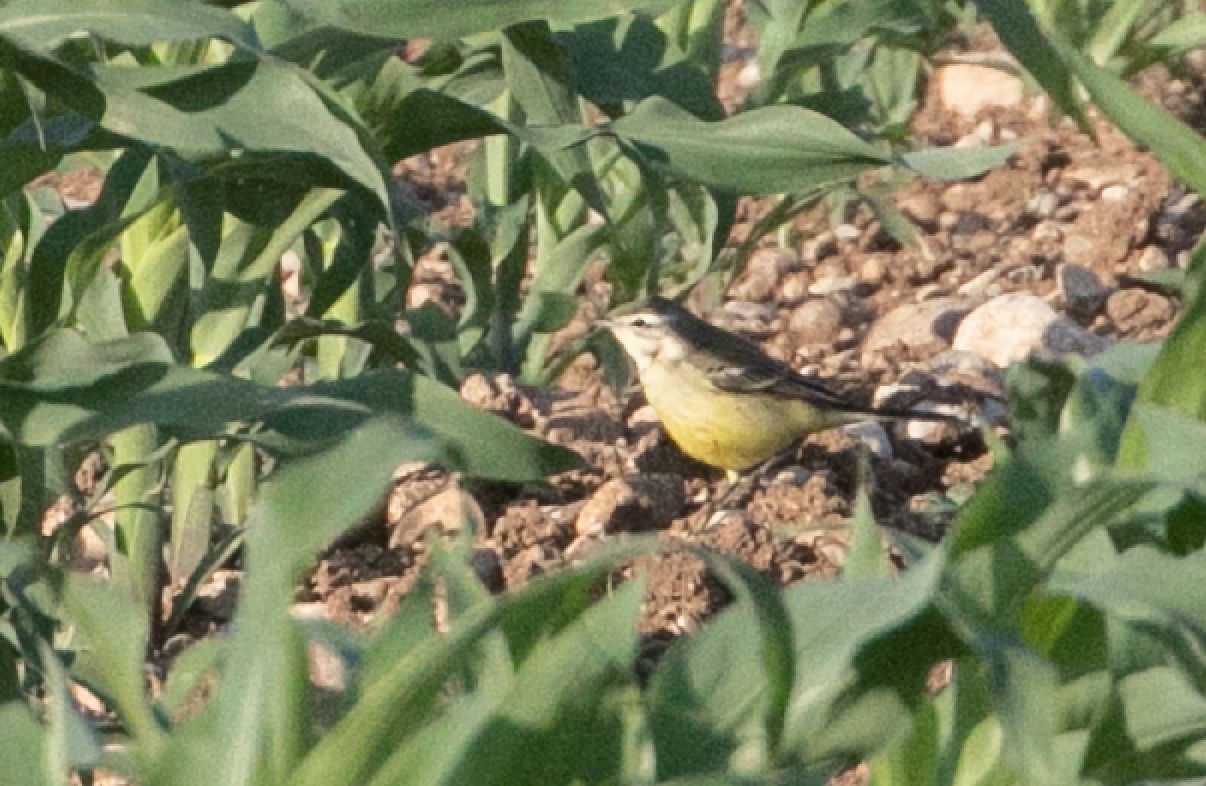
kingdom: Animalia
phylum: Chordata
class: Aves
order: Passeriformes
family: Motacillidae
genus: Motacilla
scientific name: Motacilla flava
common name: Western yellow wagtail
